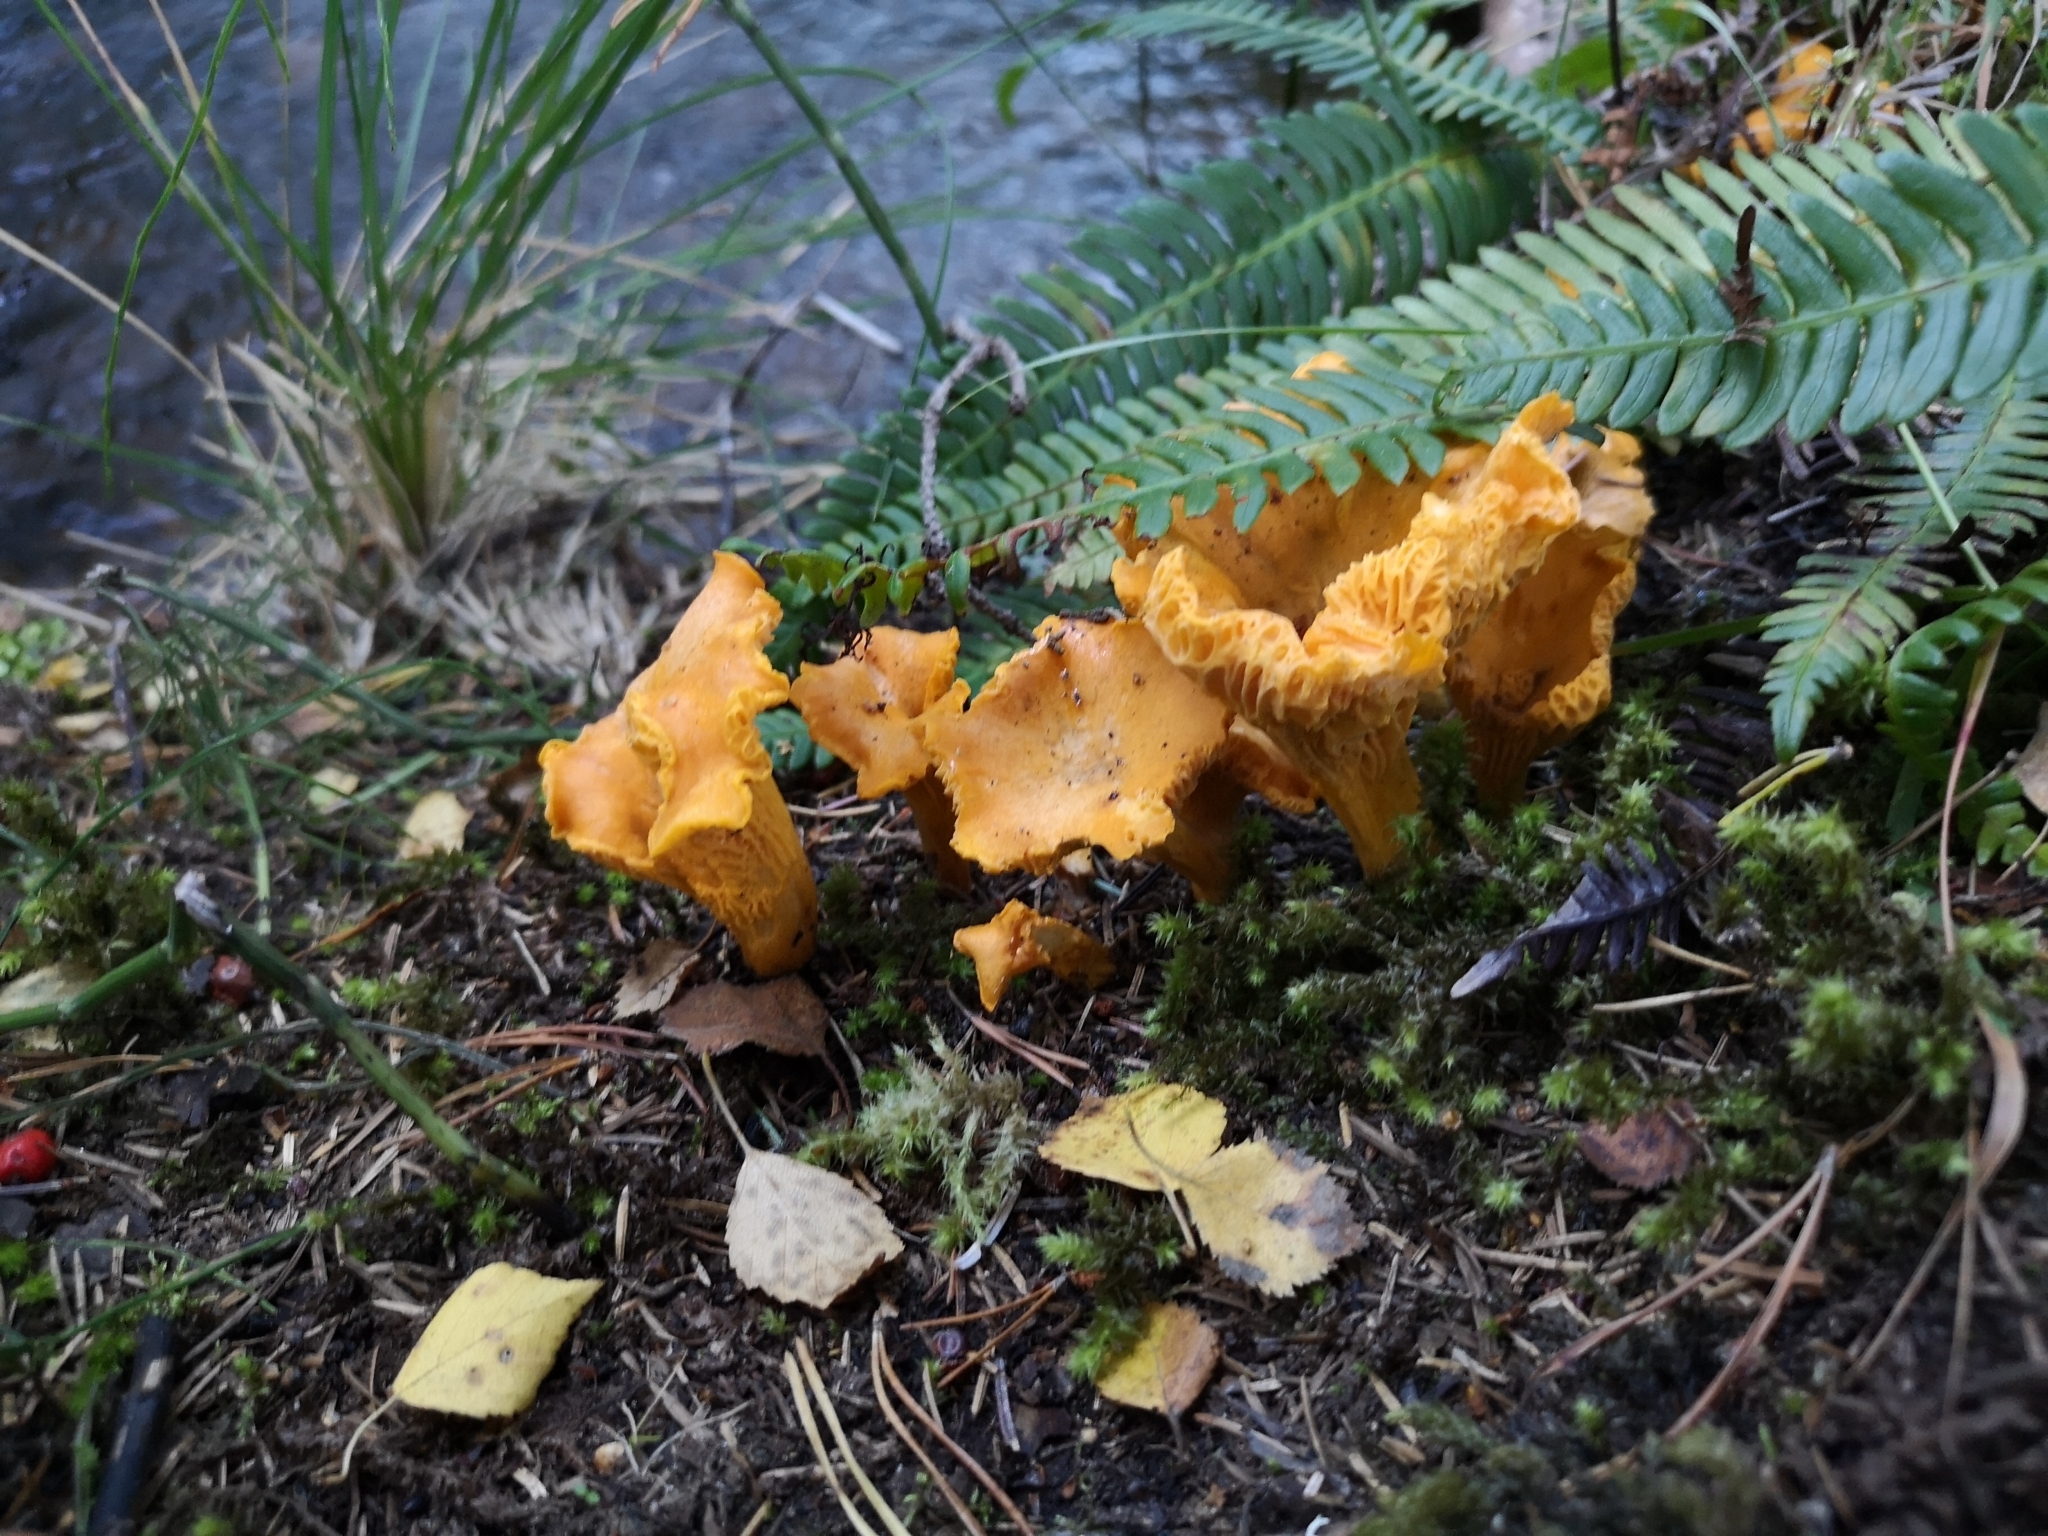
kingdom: Fungi
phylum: Basidiomycota
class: Agaricomycetes
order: Cantharellales
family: Hydnaceae
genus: Cantharellus
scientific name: Cantharellus cibarius
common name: Chanterelle
